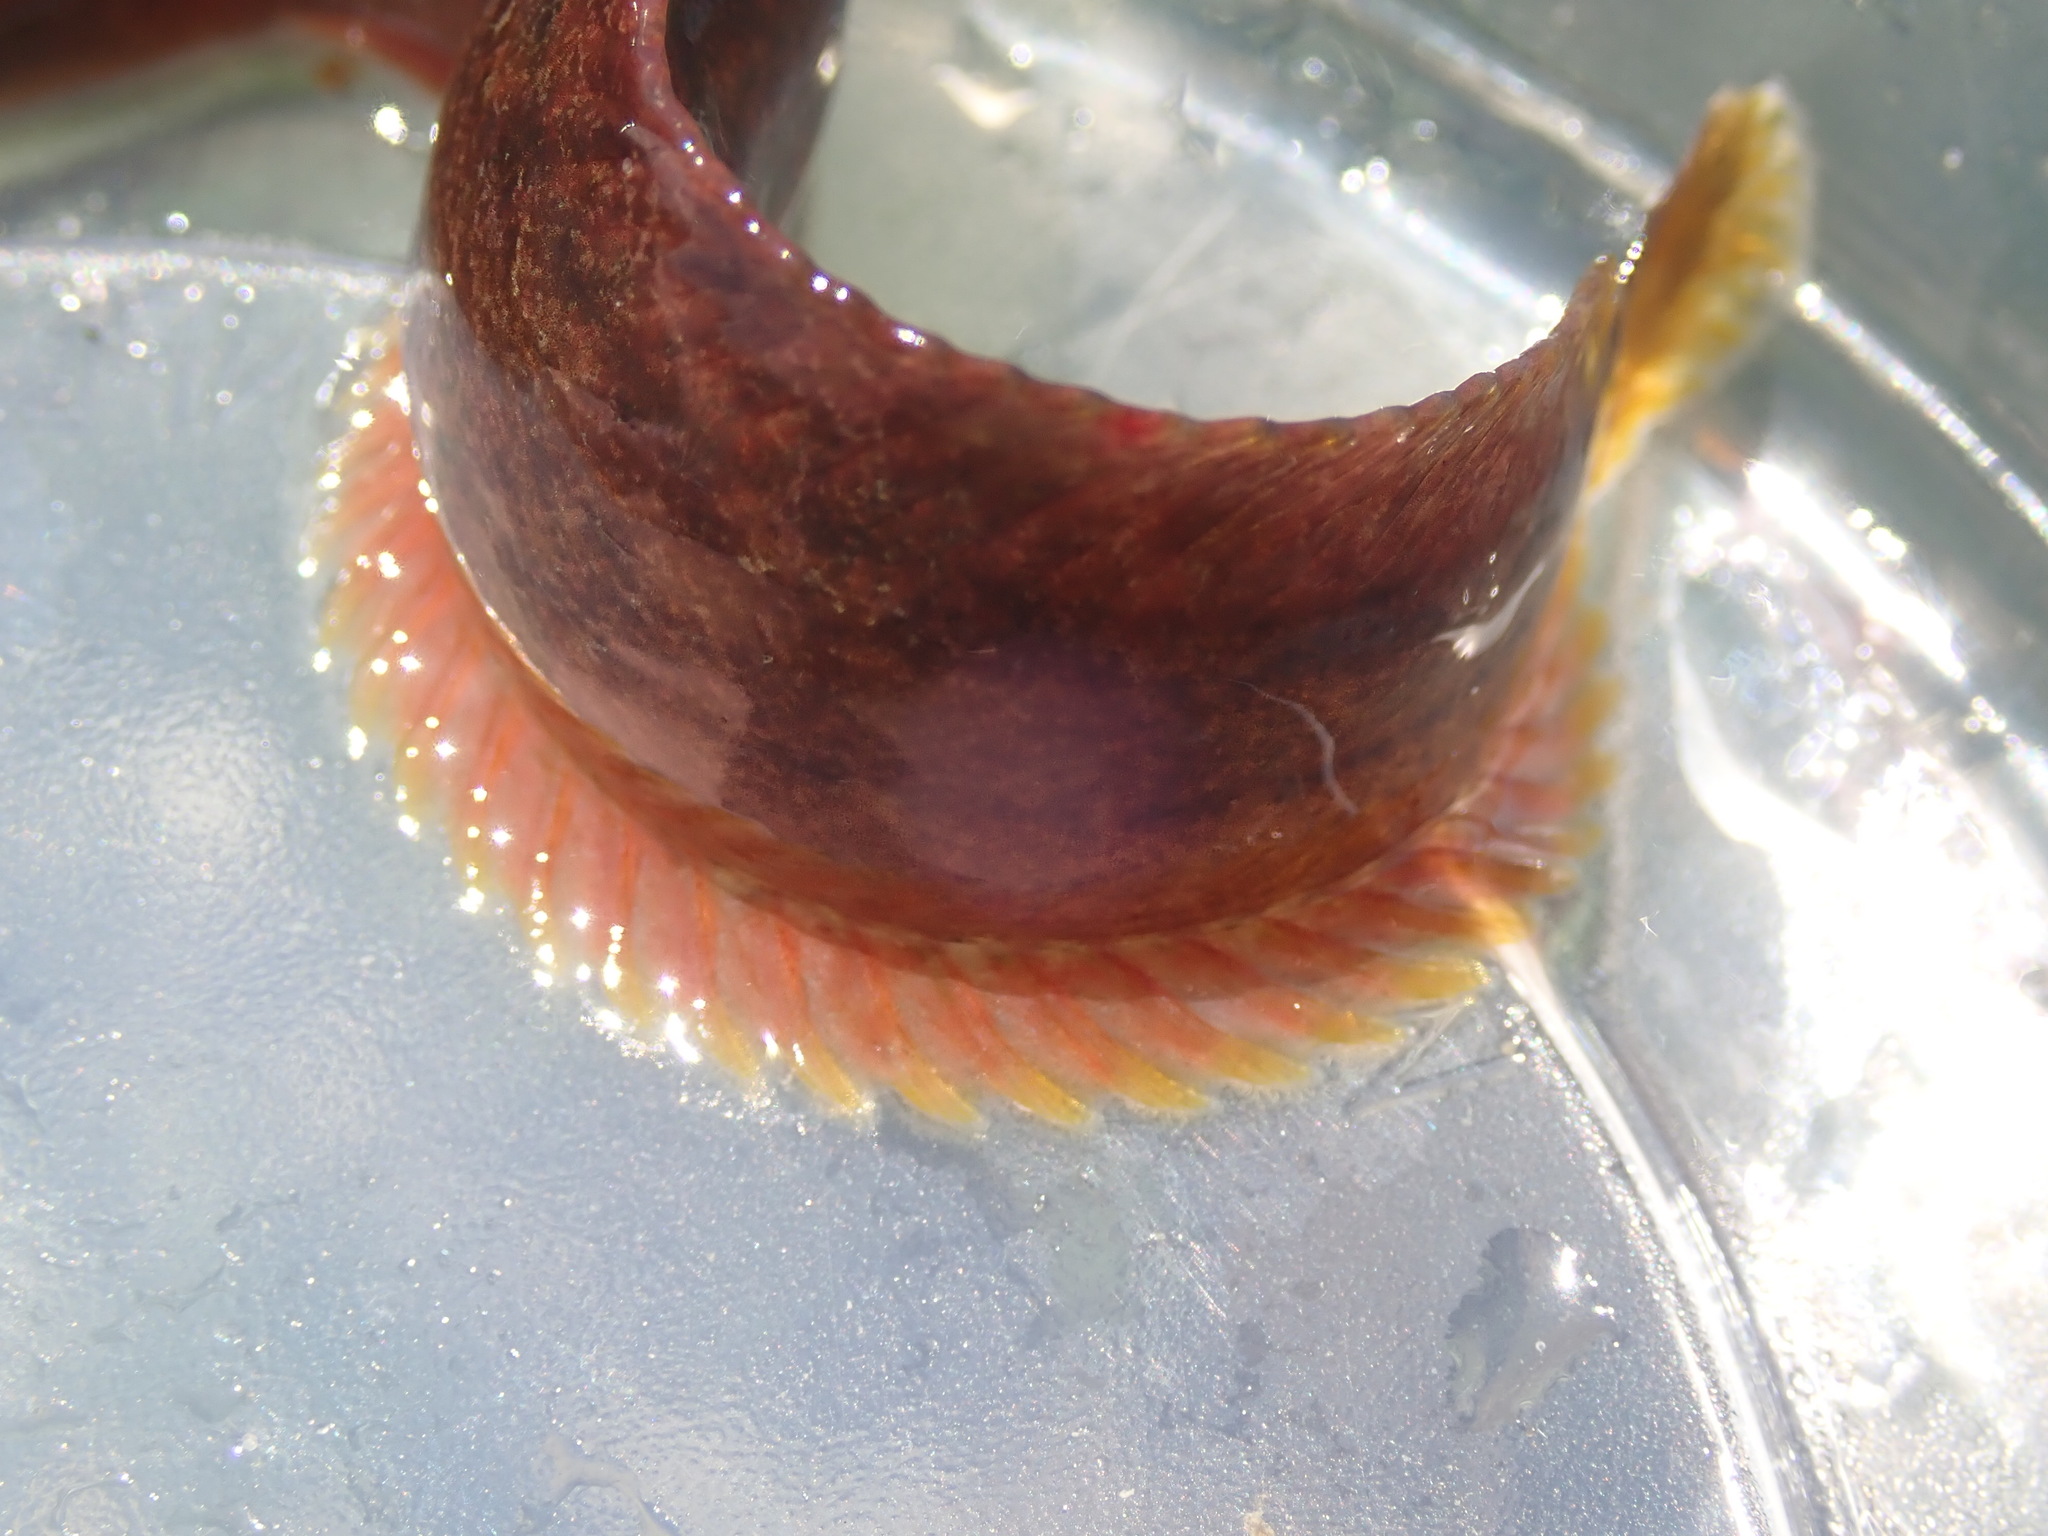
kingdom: Animalia
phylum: Chordata
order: Perciformes
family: Stichaeidae
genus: Anoplarchus
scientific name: Anoplarchus purpurescens
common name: High cockscomb
